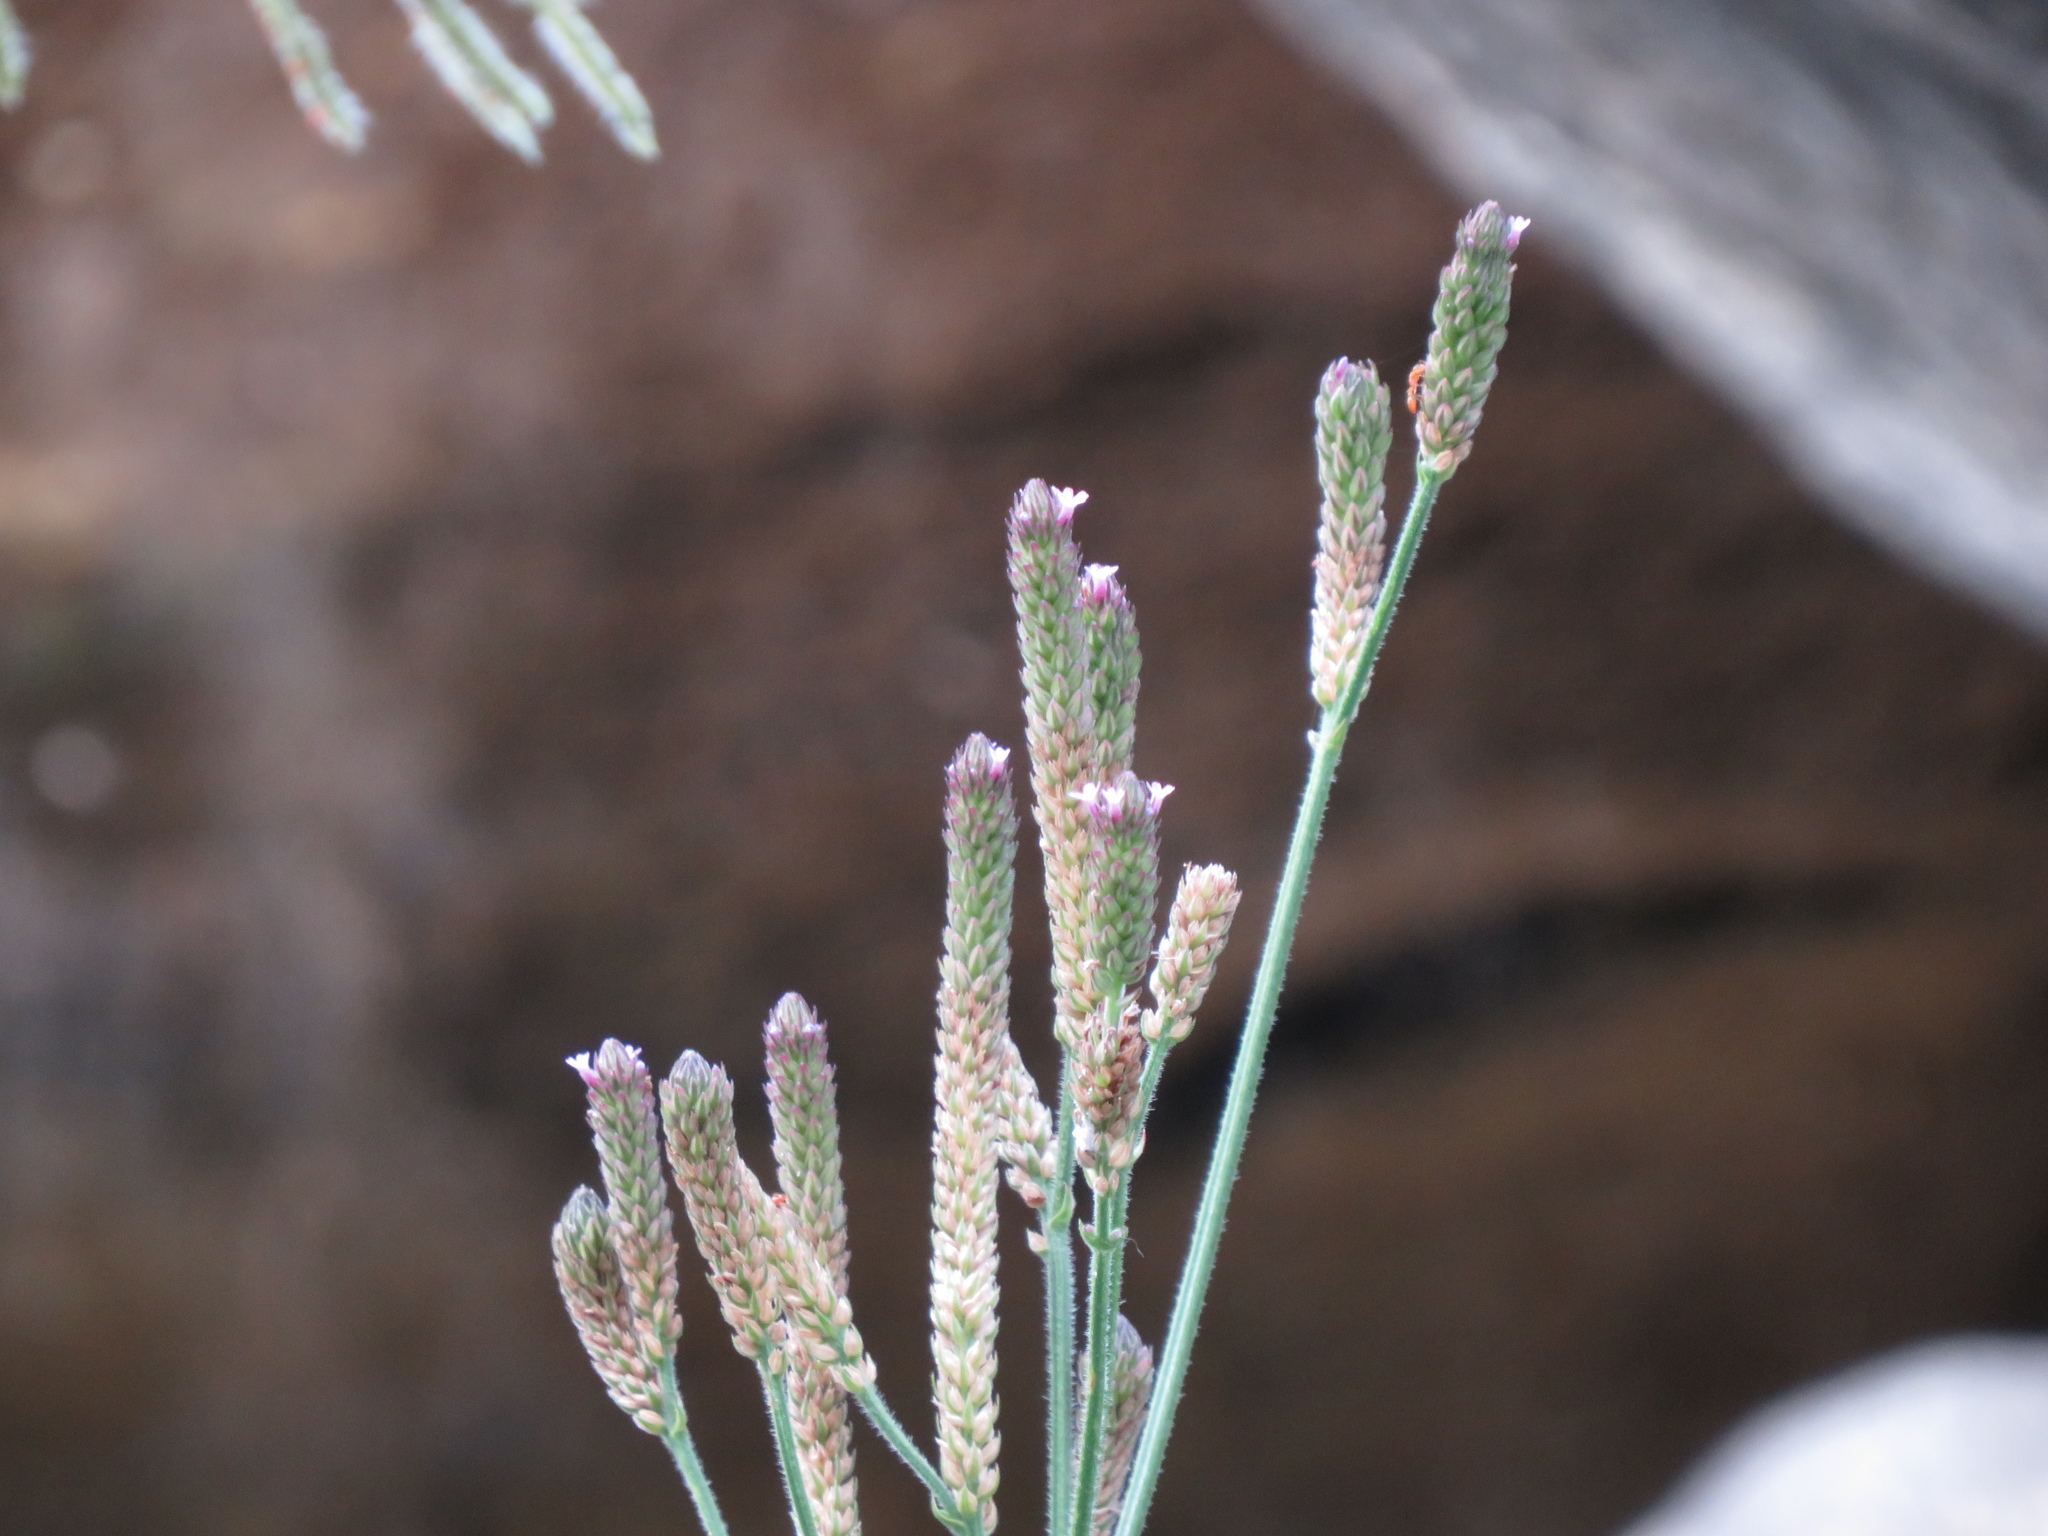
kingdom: Plantae
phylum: Tracheophyta
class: Magnoliopsida
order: Lamiales
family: Verbenaceae
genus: Verbena
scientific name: Verbena litoralis
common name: Seashore vervain
